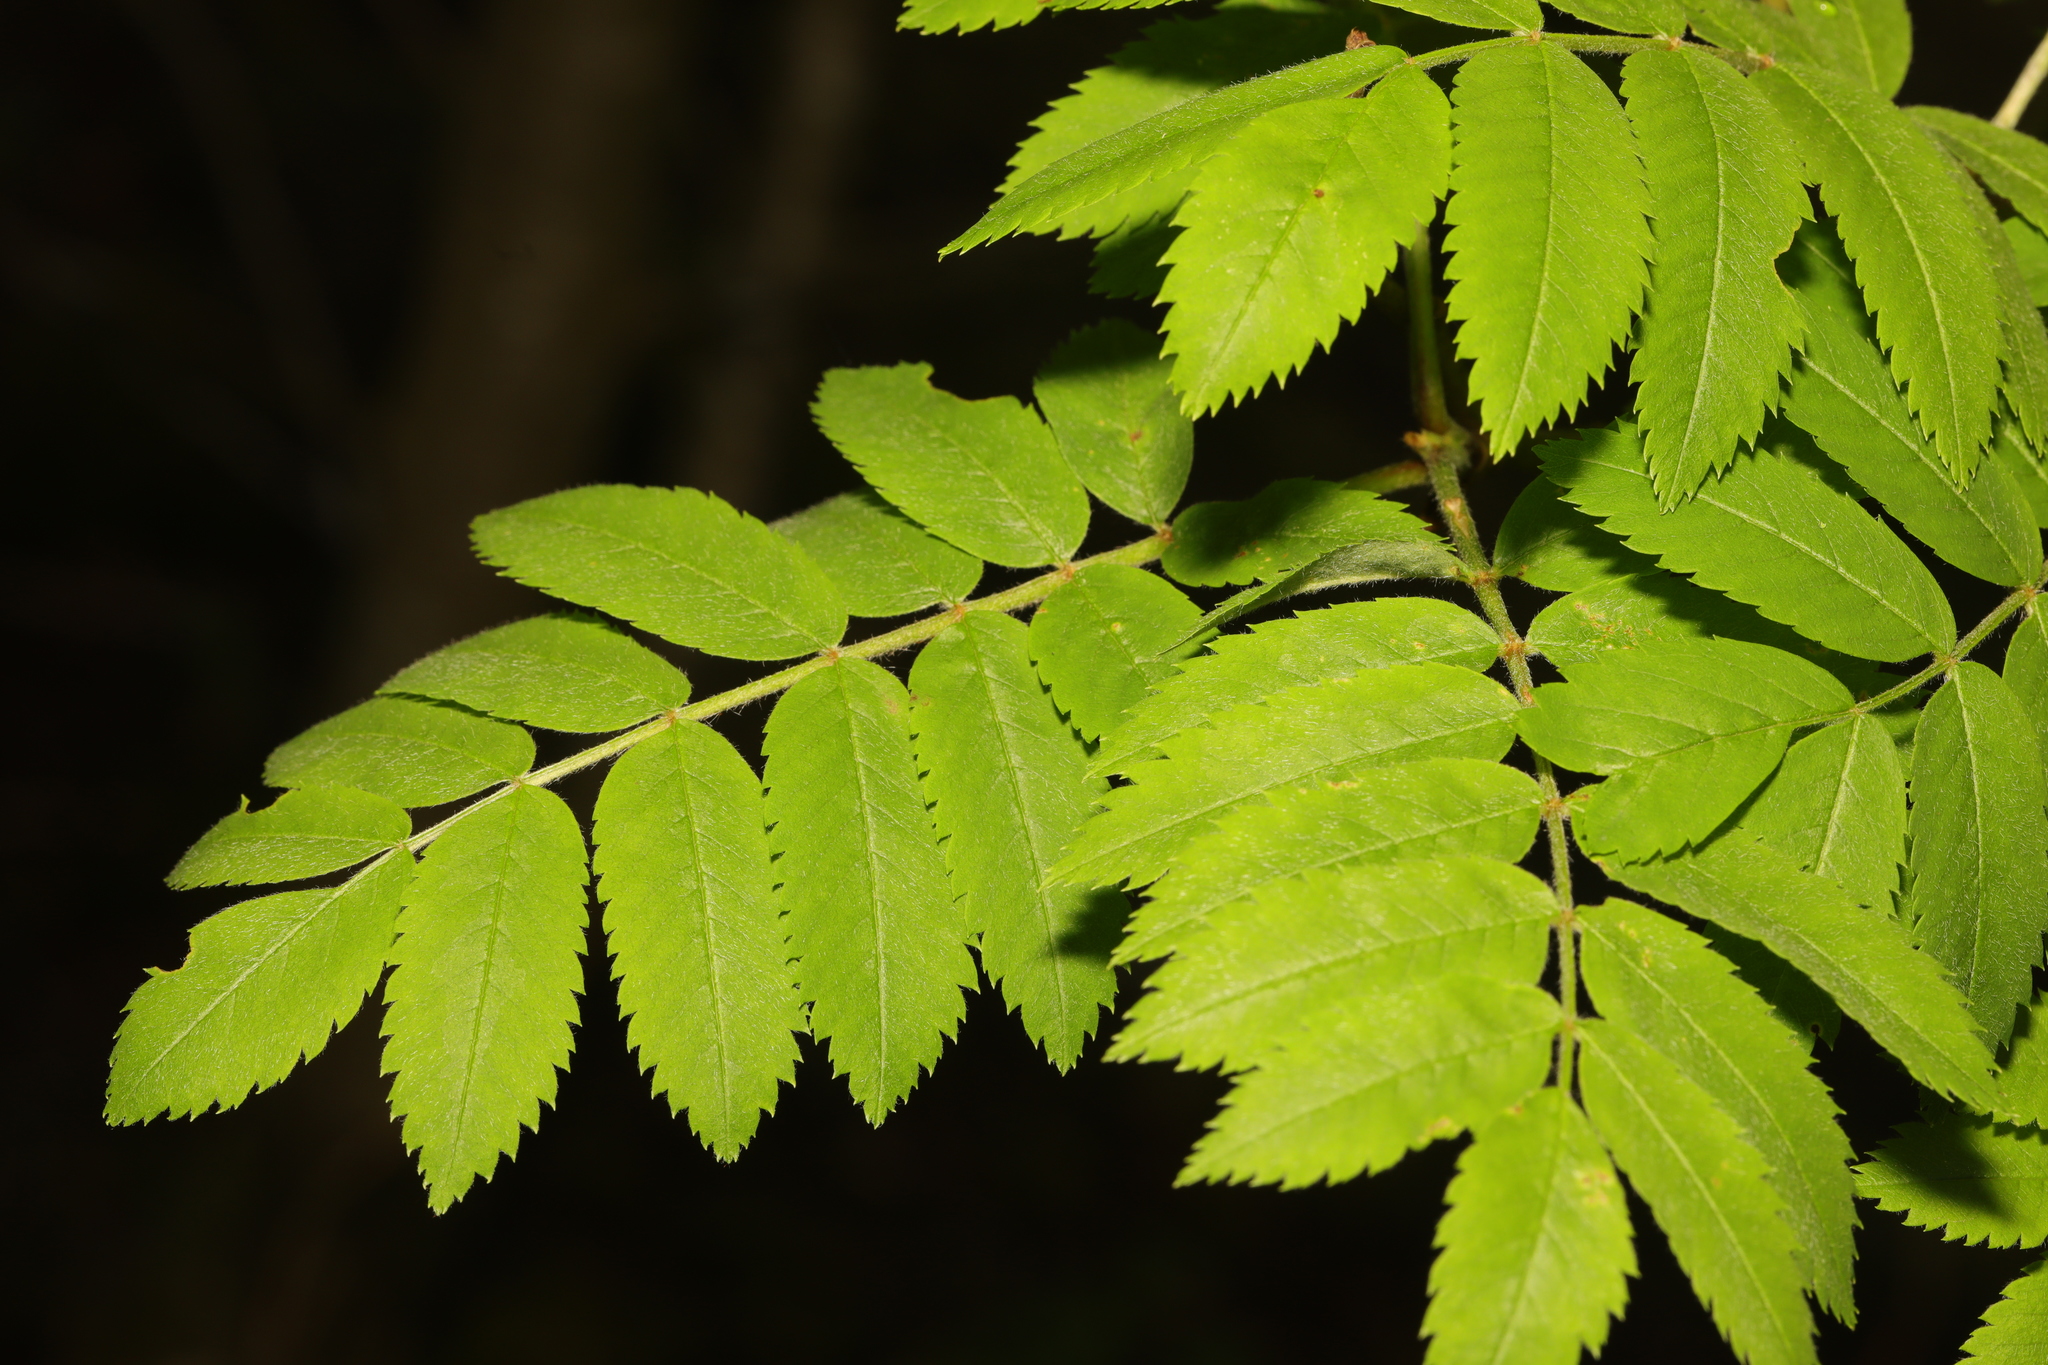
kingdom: Plantae
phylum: Tracheophyta
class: Magnoliopsida
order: Rosales
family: Rosaceae
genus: Sorbus
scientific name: Sorbus aucuparia
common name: Rowan
